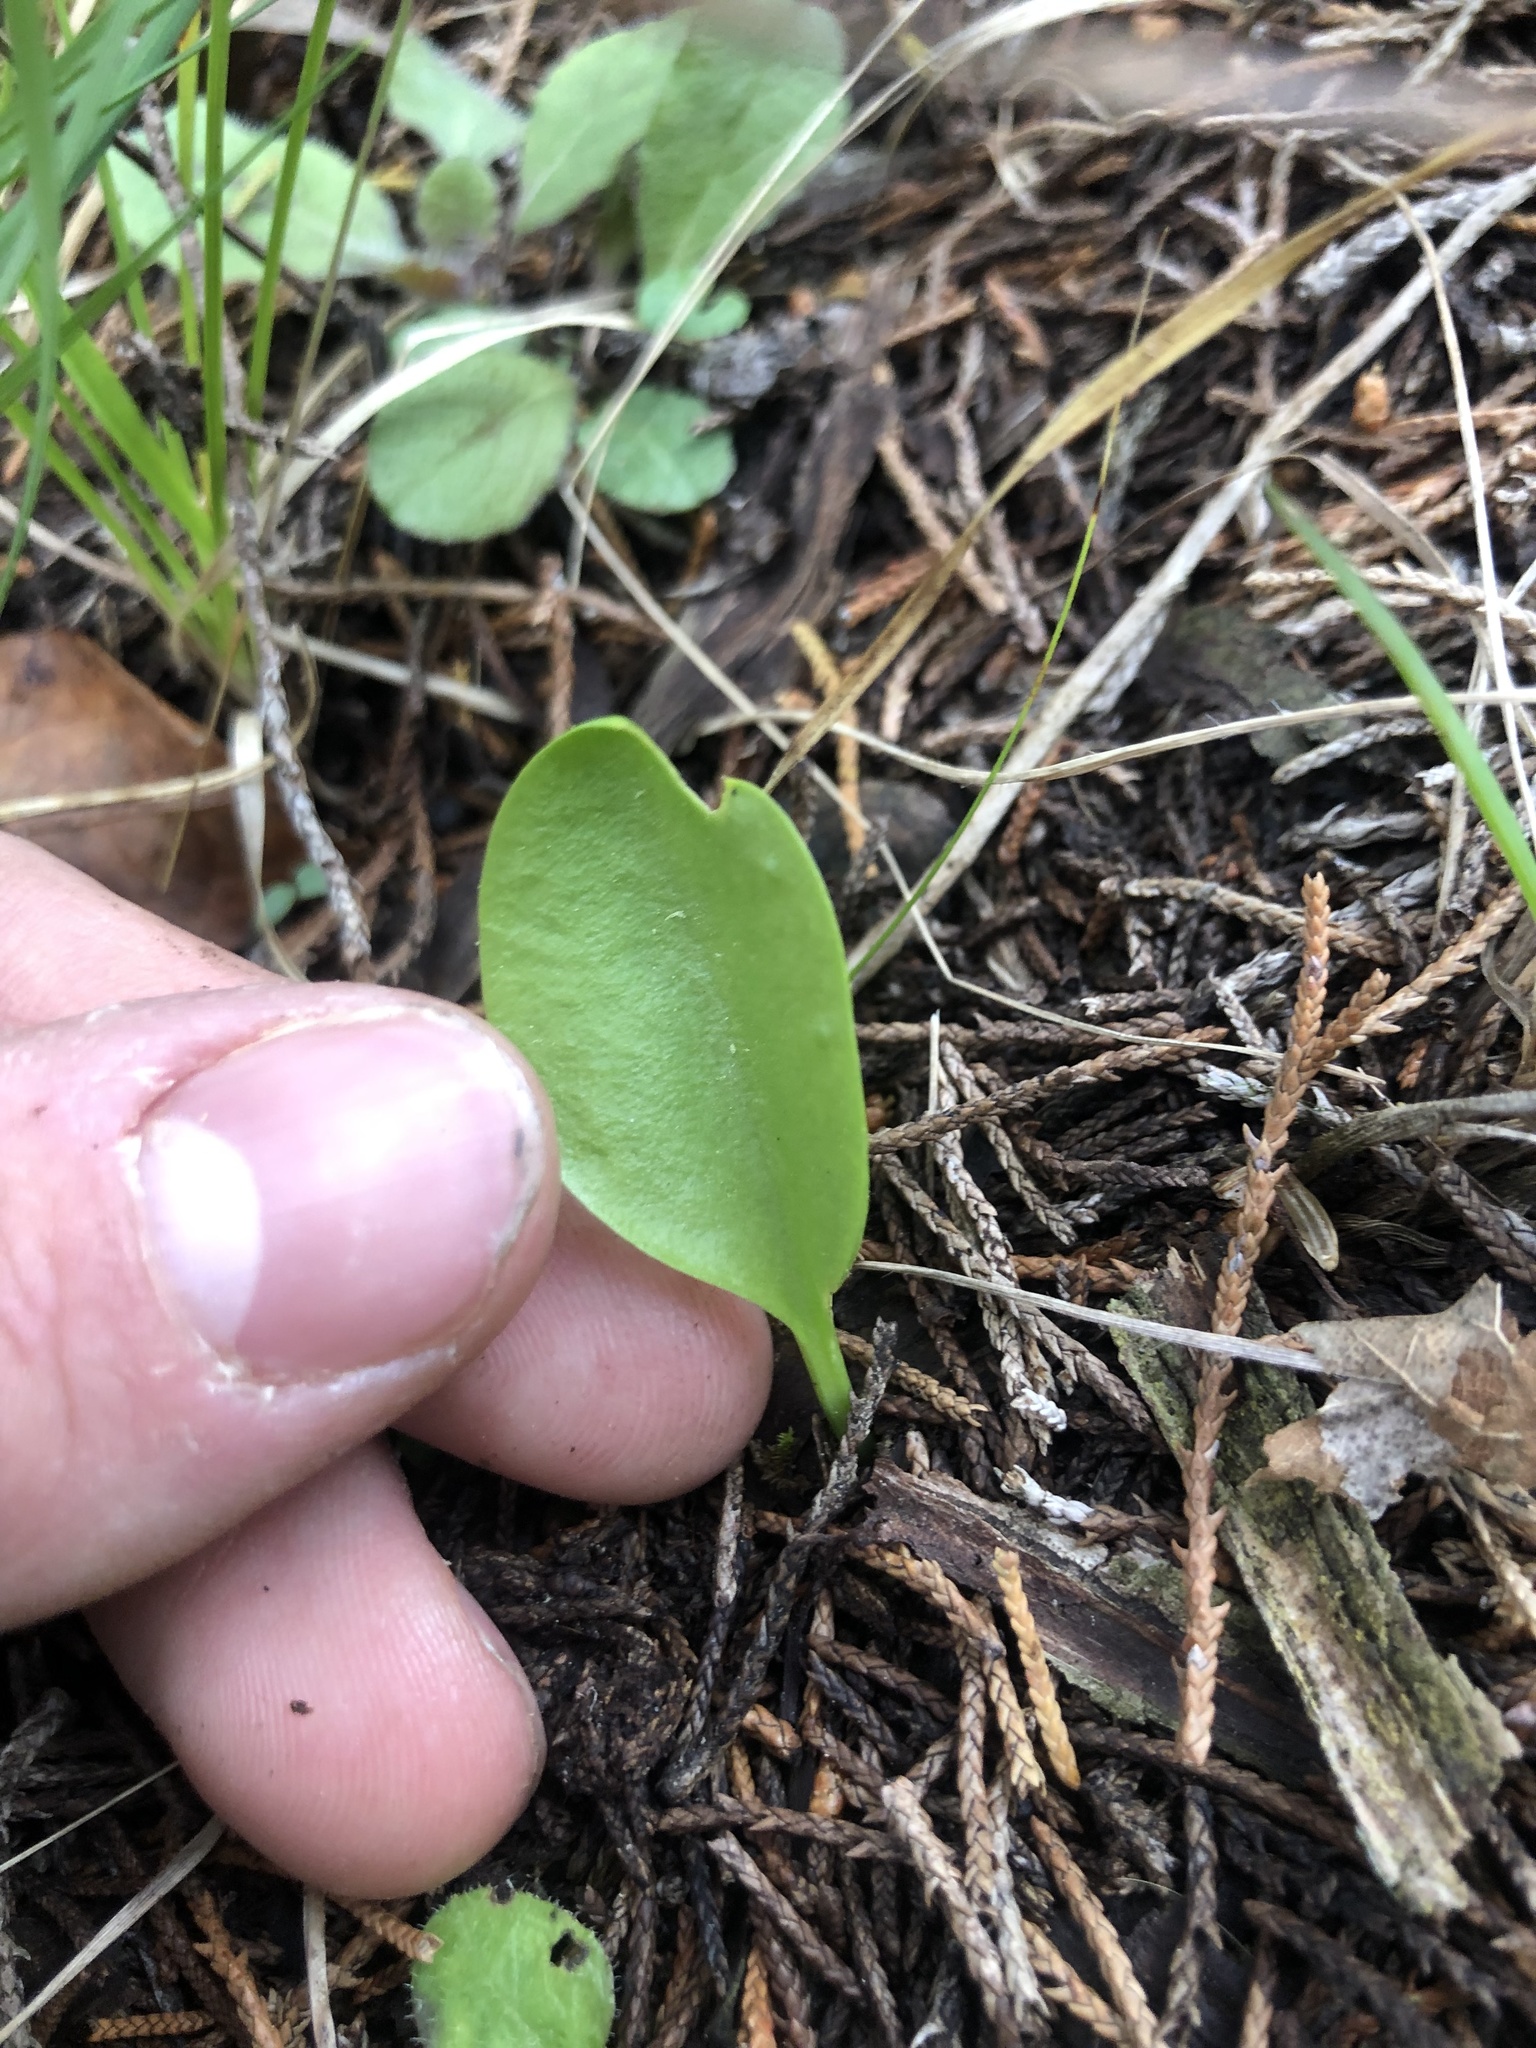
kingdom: Plantae
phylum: Tracheophyta
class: Polypodiopsida
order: Ophioglossales
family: Ophioglossaceae
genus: Ophioglossum
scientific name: Ophioglossum engelmannii
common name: Limestone adder's-tongue
